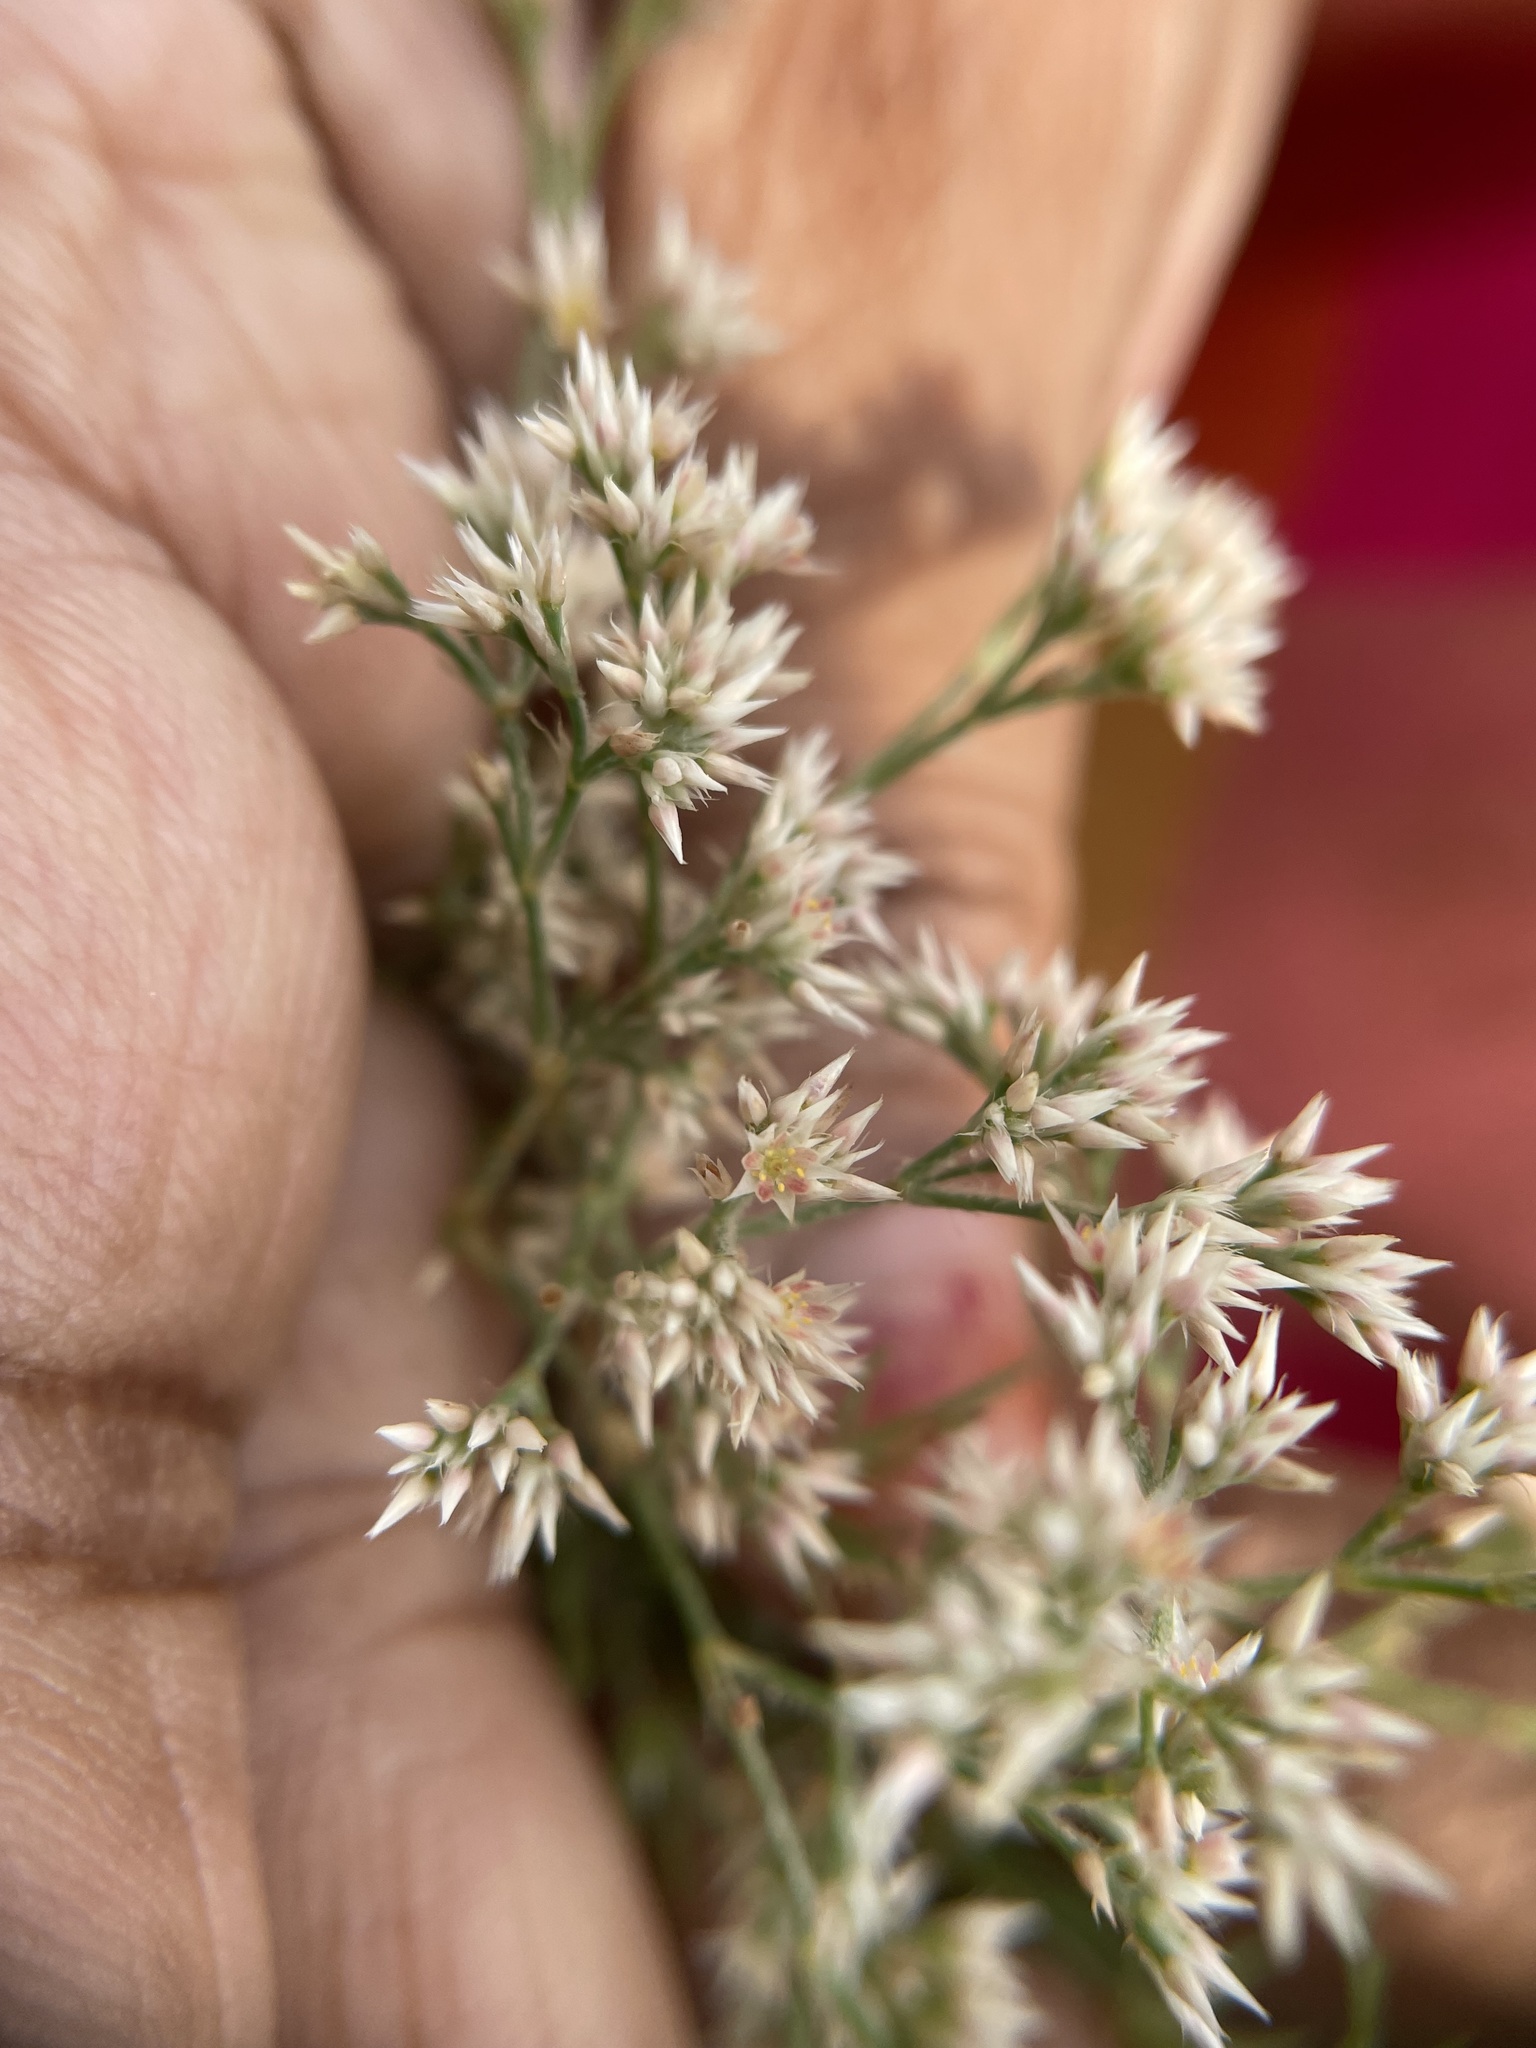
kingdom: Plantae
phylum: Tracheophyta
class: Magnoliopsida
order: Caryophyllales
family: Caryophyllaceae
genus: Polycarpaea
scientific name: Polycarpaea corymbosa
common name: Oldman's cap
